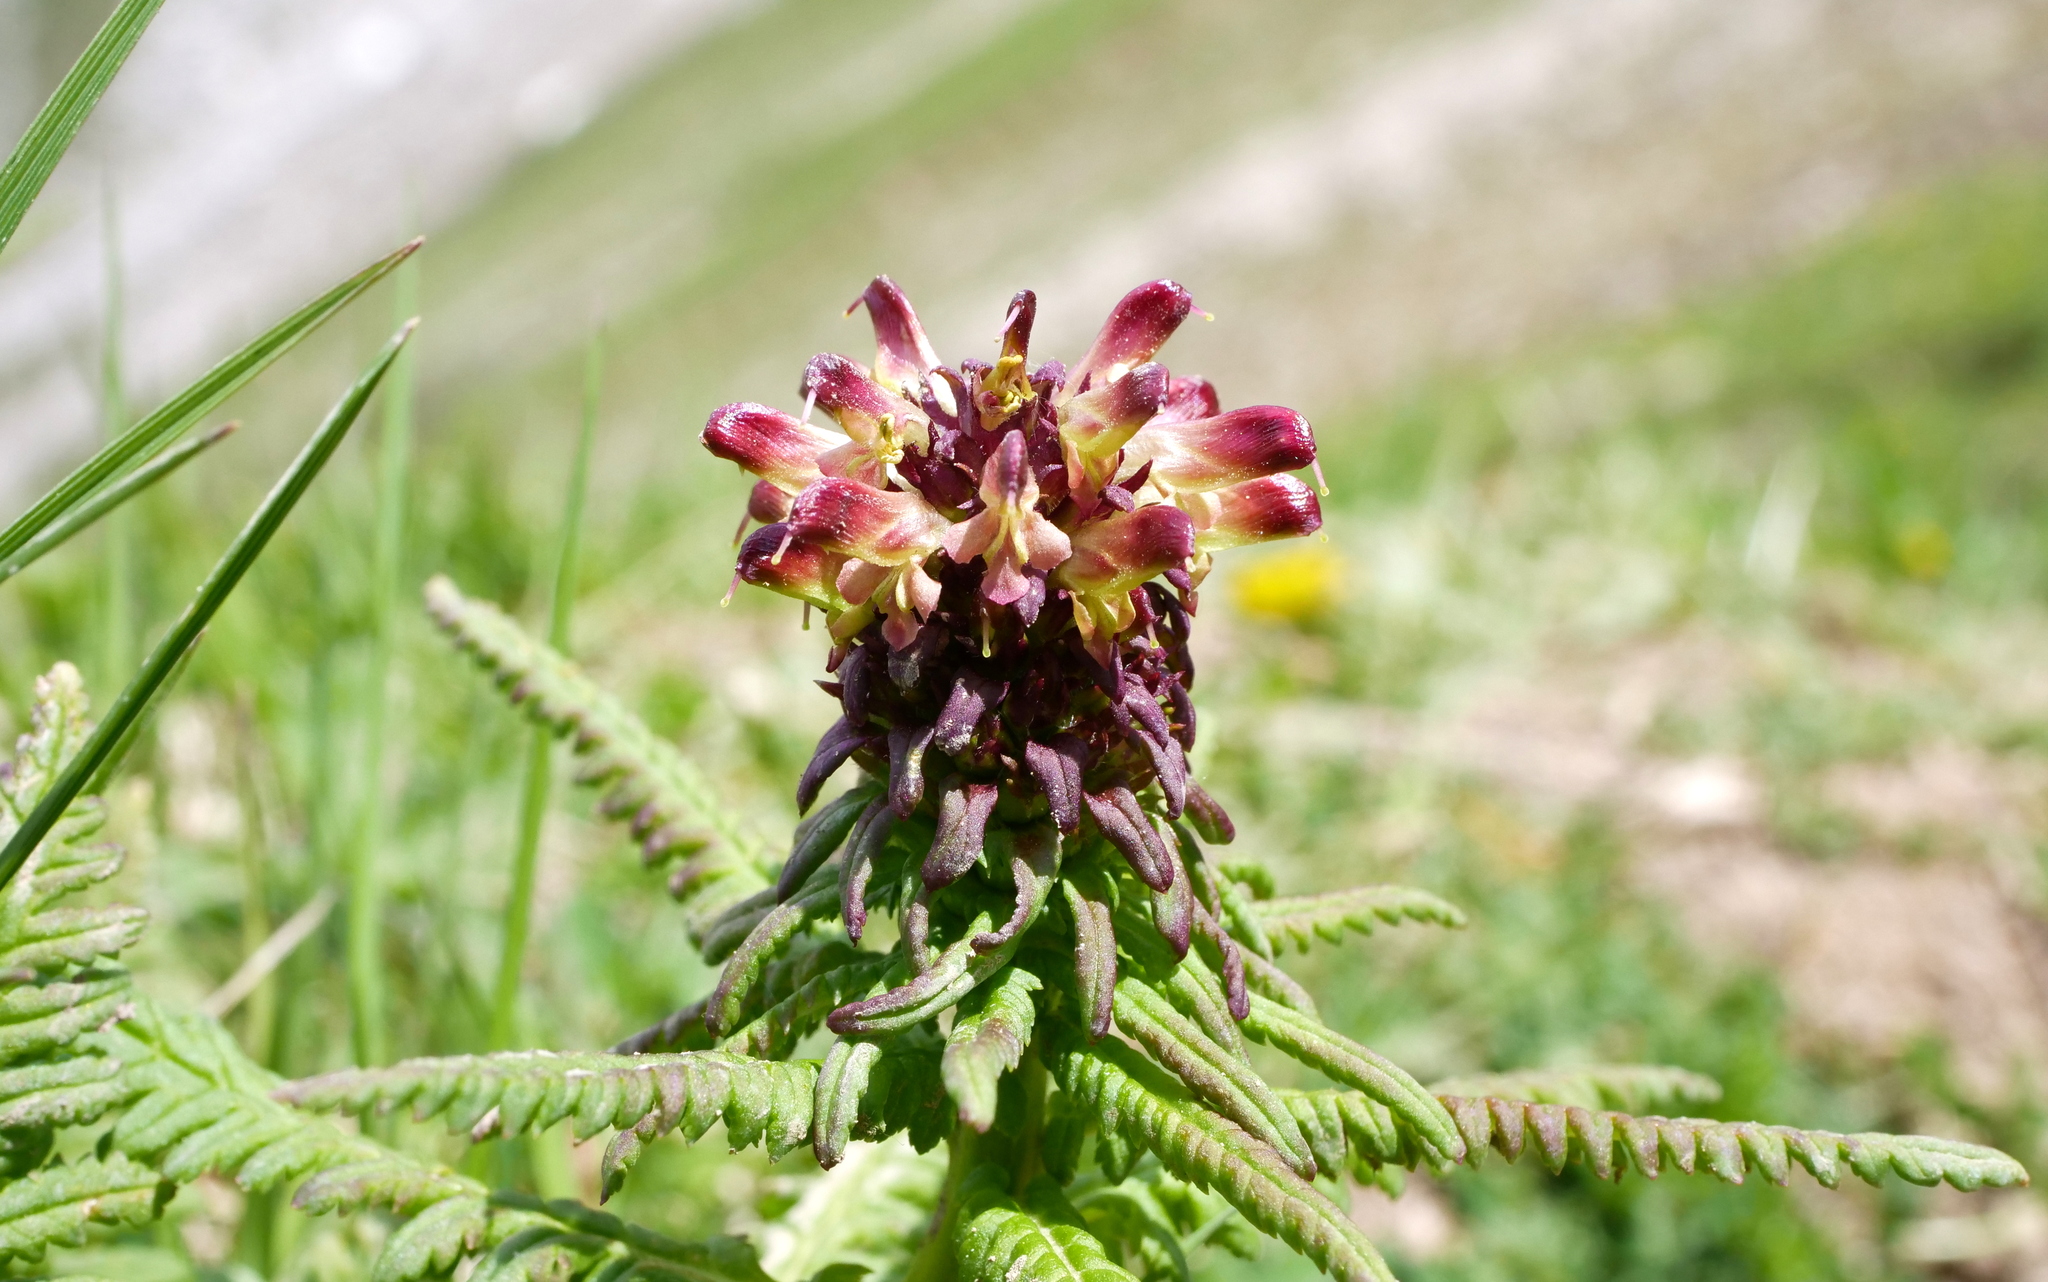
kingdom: Plantae
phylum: Tracheophyta
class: Magnoliopsida
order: Lamiales
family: Orobanchaceae
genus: Pedicularis
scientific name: Pedicularis recutita
